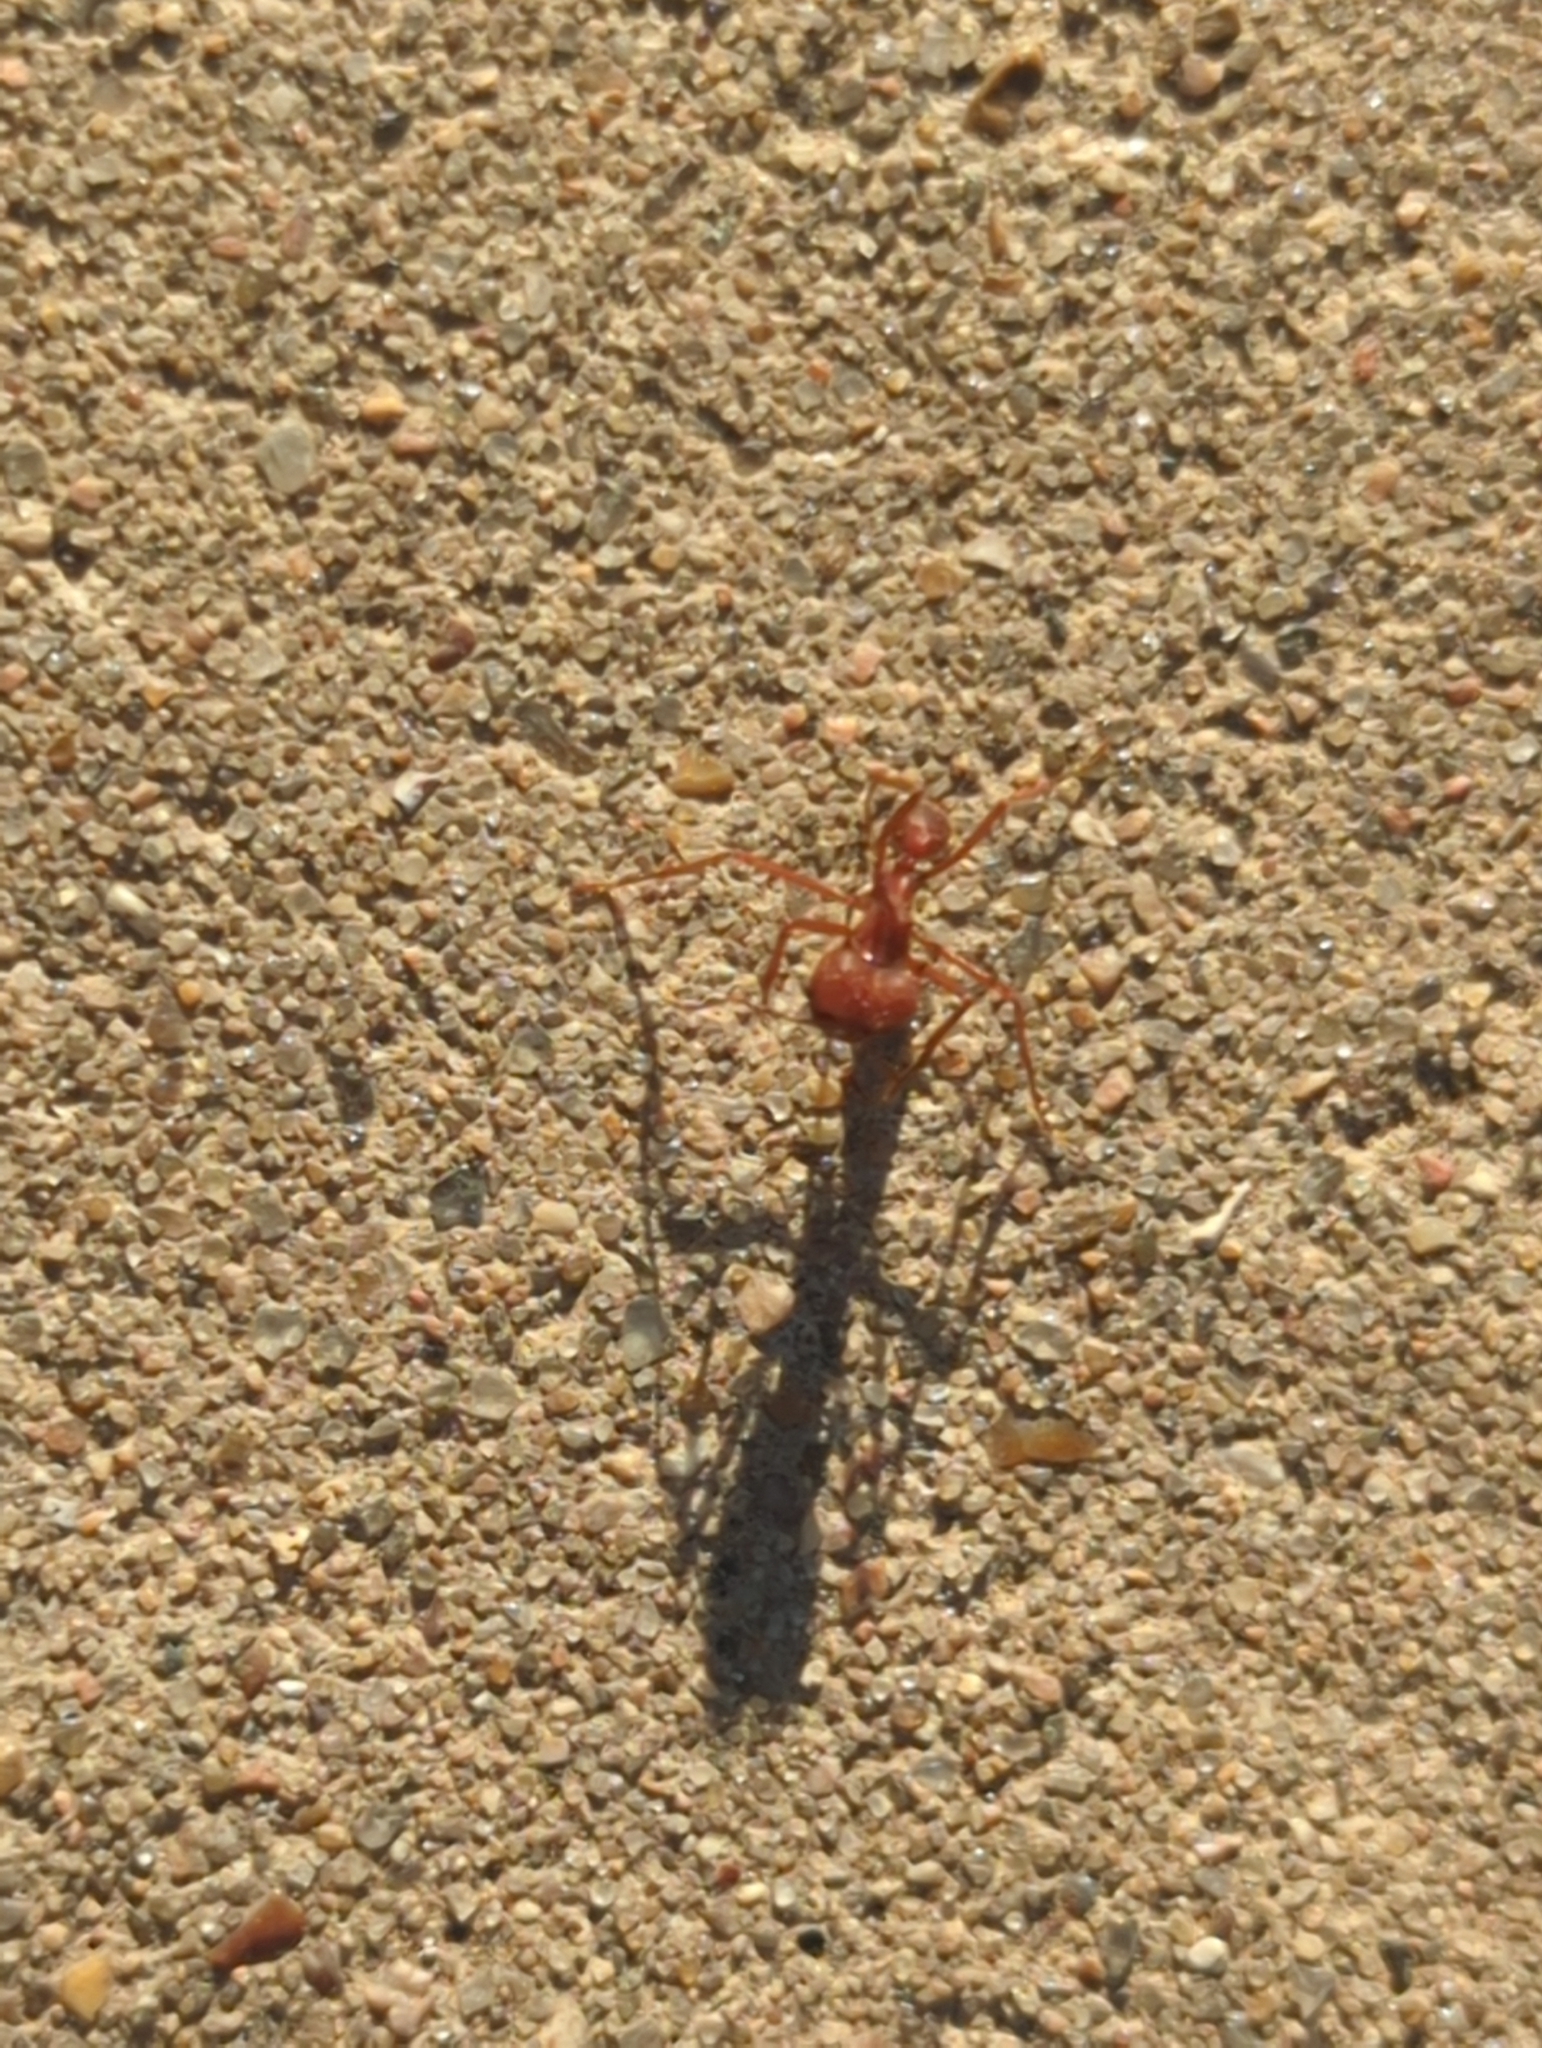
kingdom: Animalia
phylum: Arthropoda
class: Insecta
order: Hymenoptera
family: Formicidae
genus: Atta
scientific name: Atta texana
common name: Texas leafcutting ant
